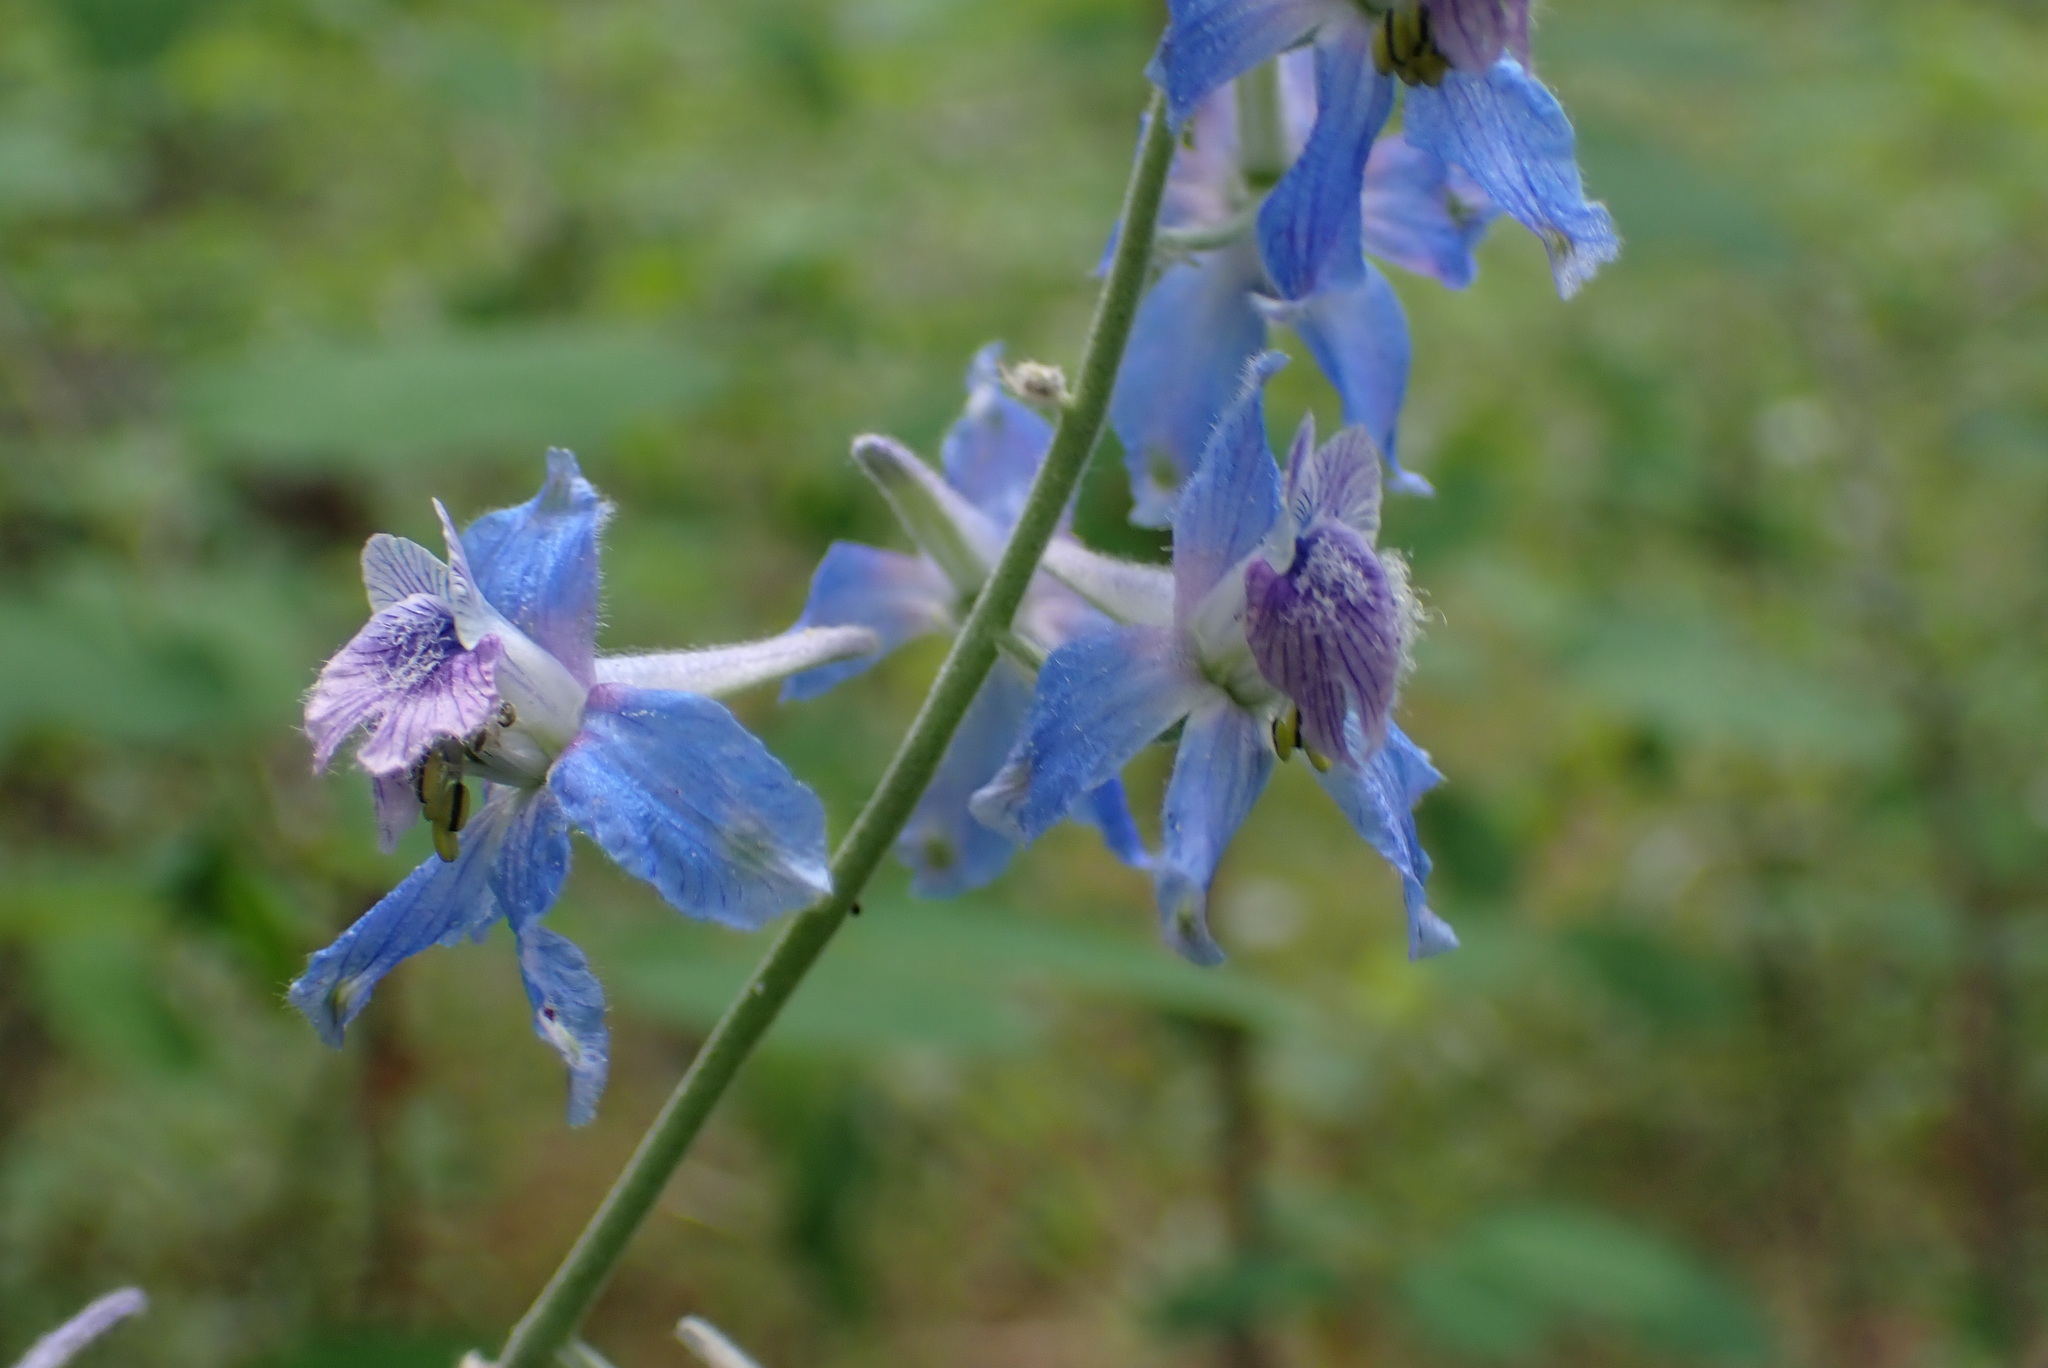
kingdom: Plantae
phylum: Tracheophyta
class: Magnoliopsida
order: Ranunculales
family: Ranunculaceae
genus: Delphinium
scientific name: Delphinium nuttallianum
